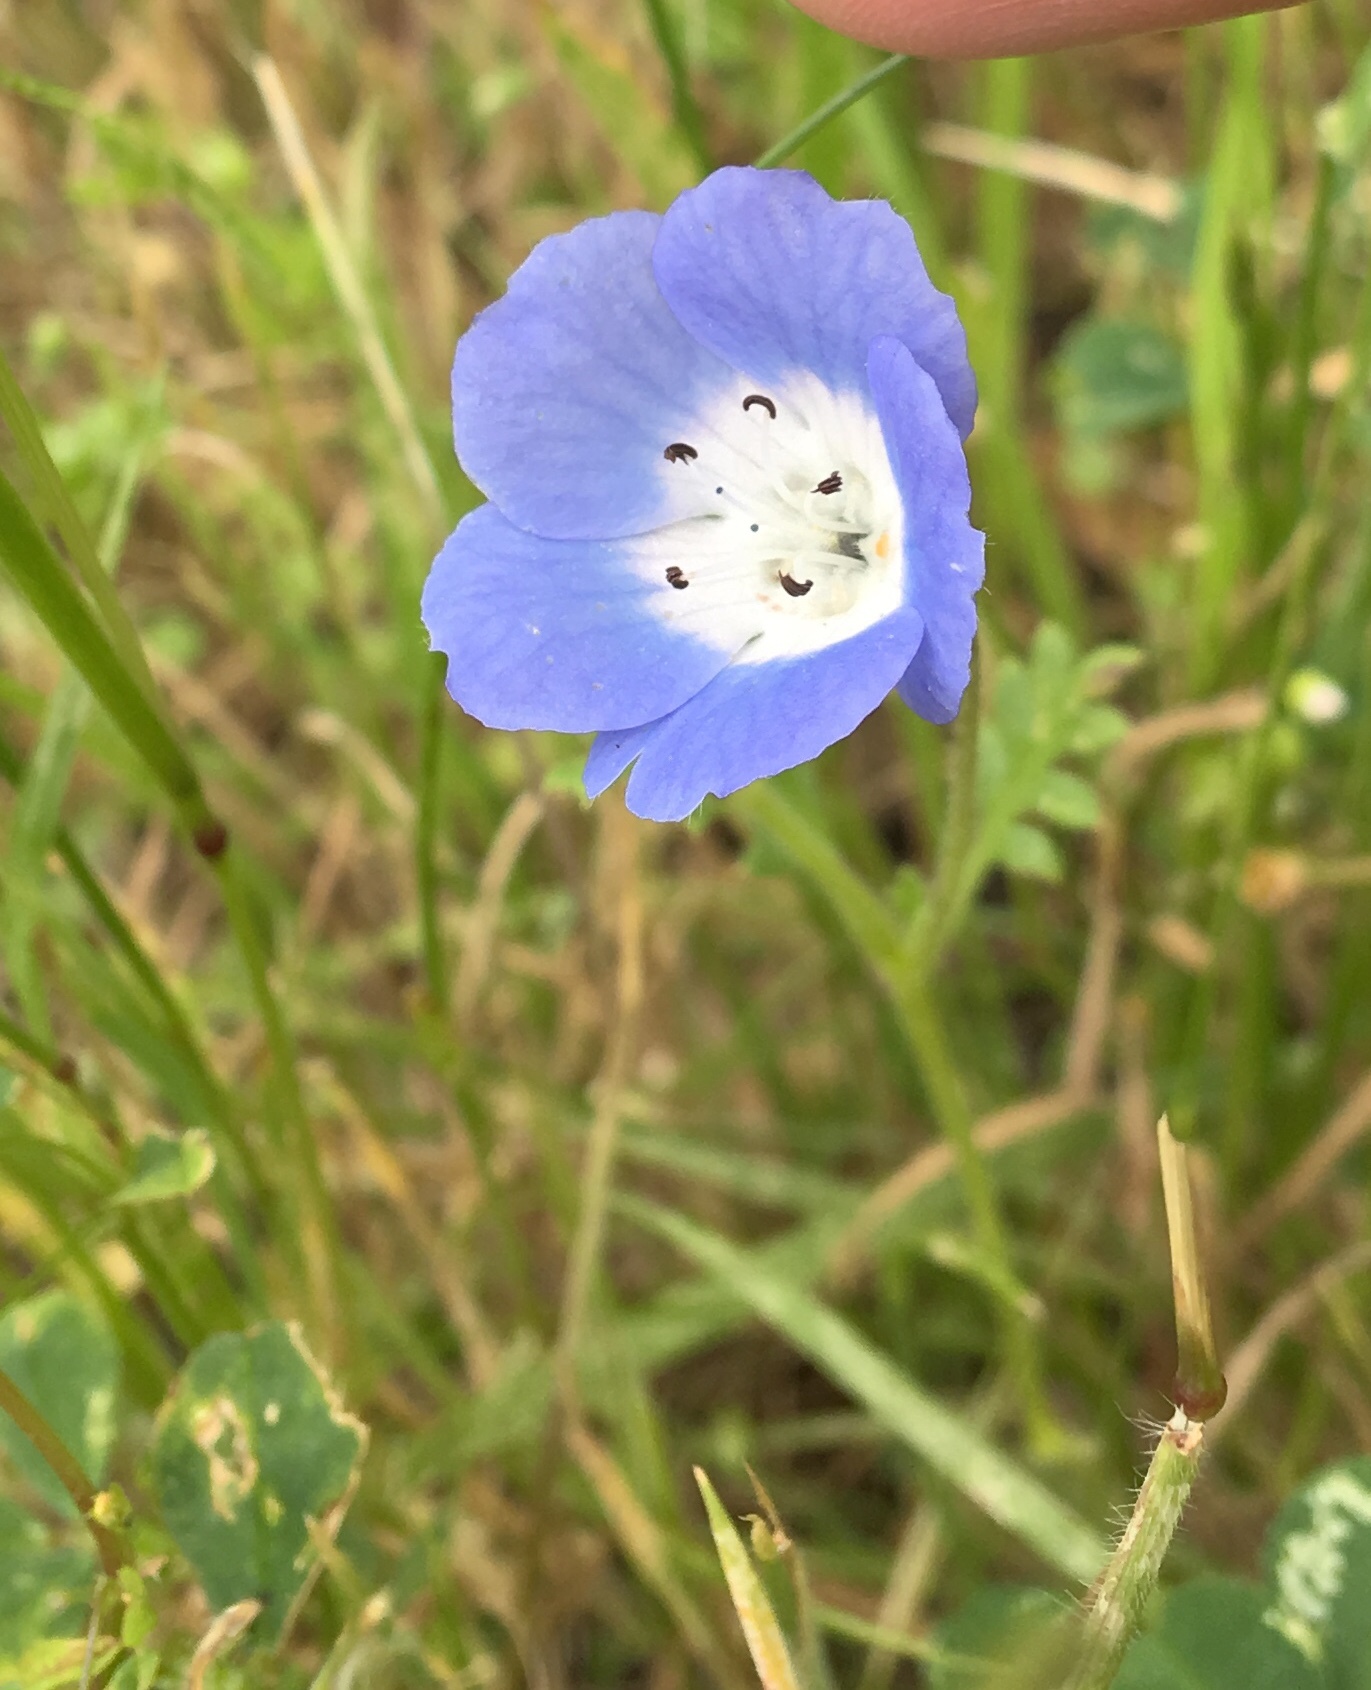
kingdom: Plantae
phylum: Tracheophyta
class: Magnoliopsida
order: Boraginales
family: Hydrophyllaceae
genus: Nemophila
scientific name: Nemophila menziesii
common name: Baby's-blue-eyes
